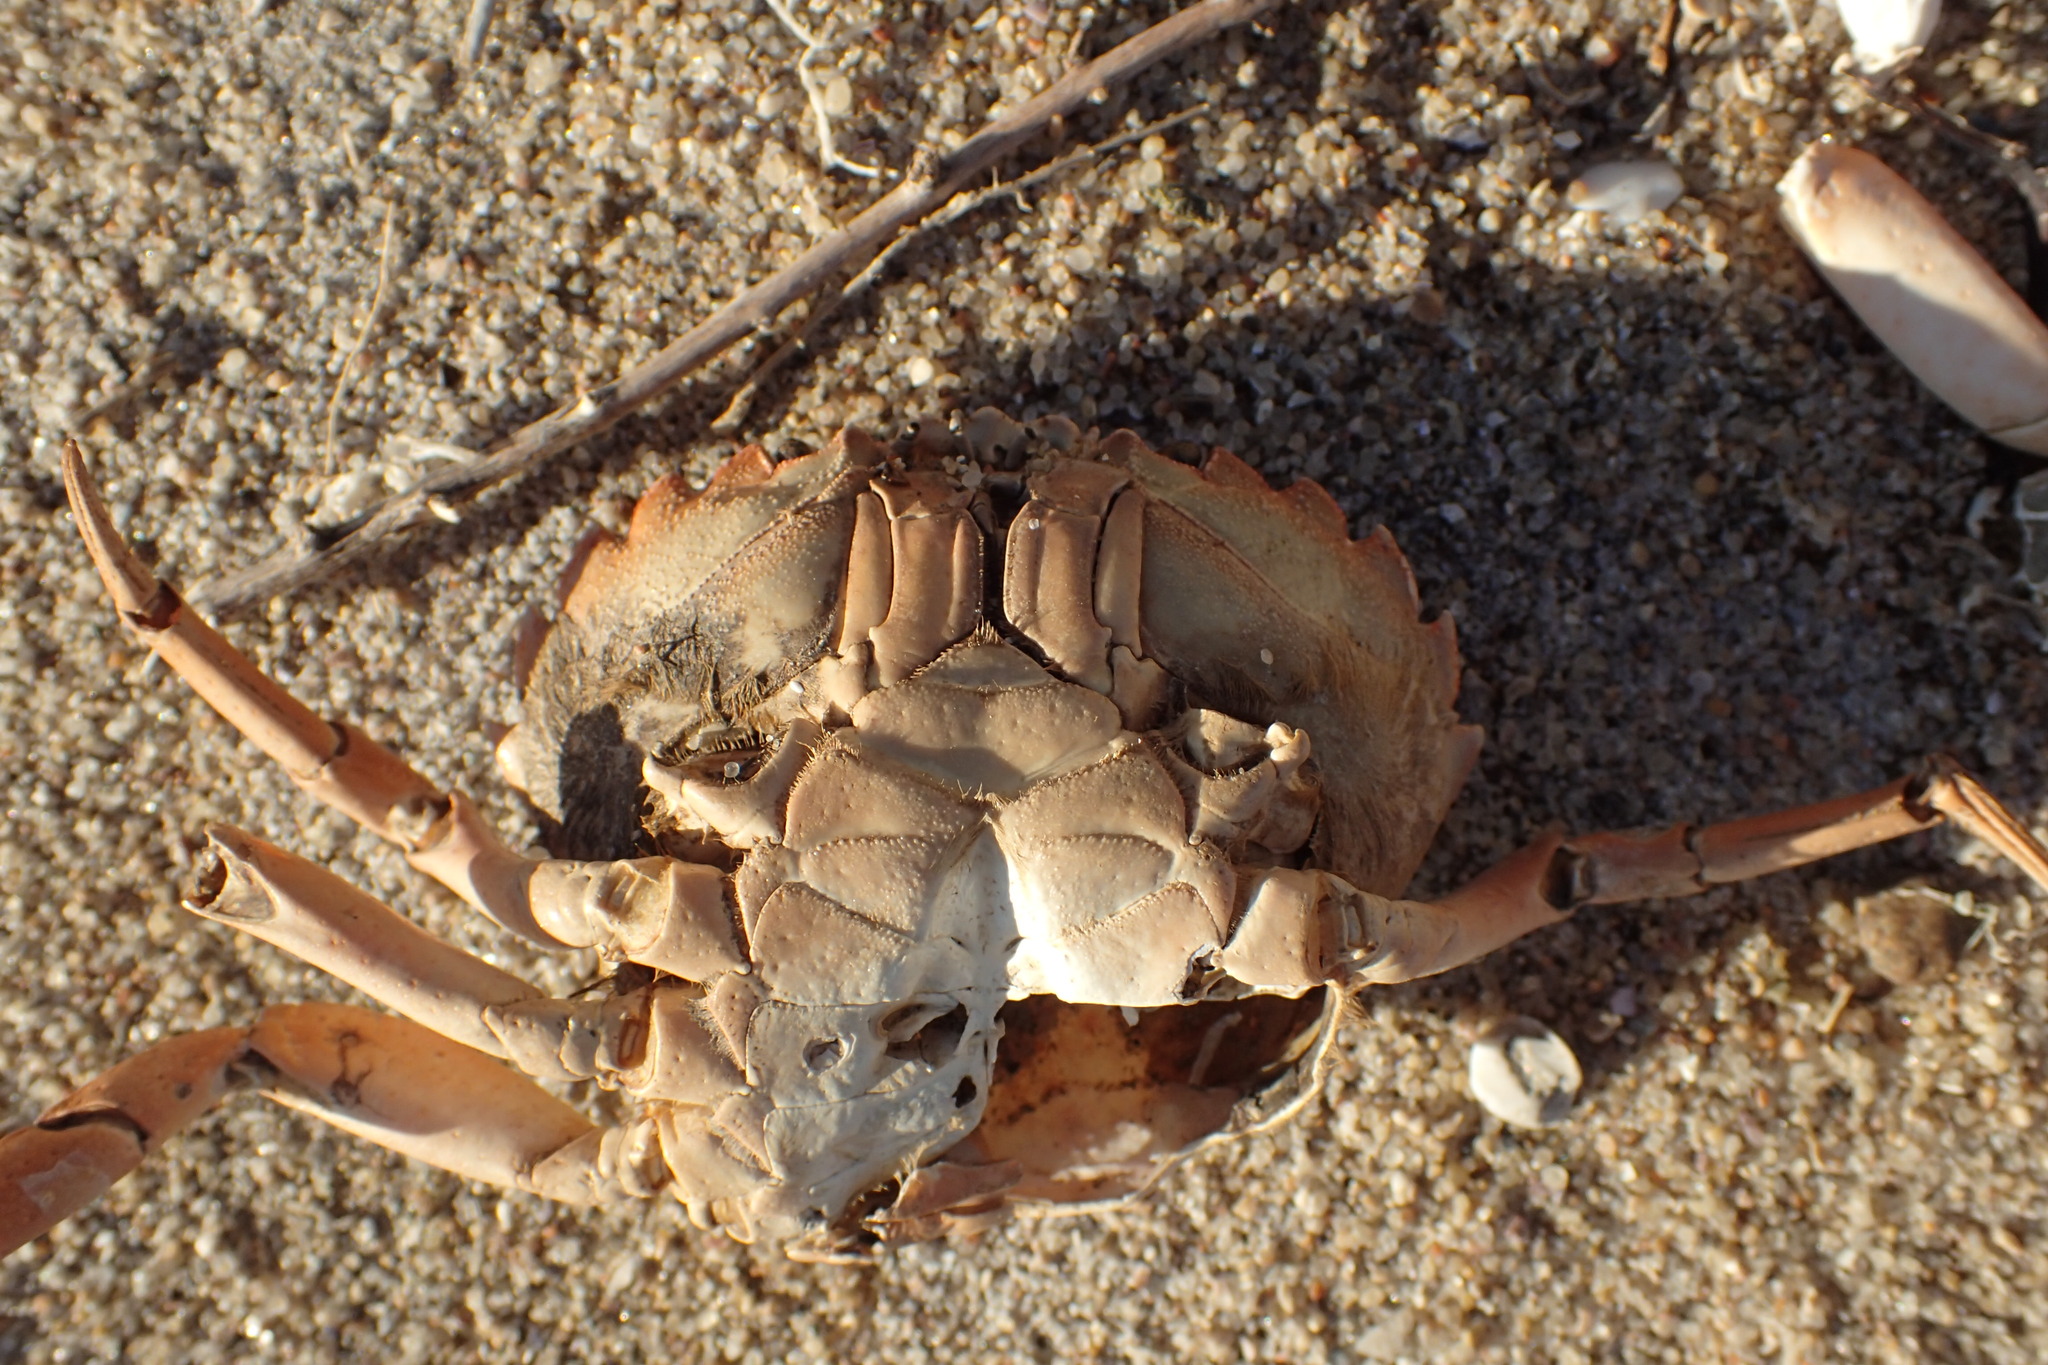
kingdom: Animalia
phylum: Arthropoda
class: Malacostraca
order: Decapoda
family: Carcinidae
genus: Carcinus
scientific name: Carcinus maenas
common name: European green crab
